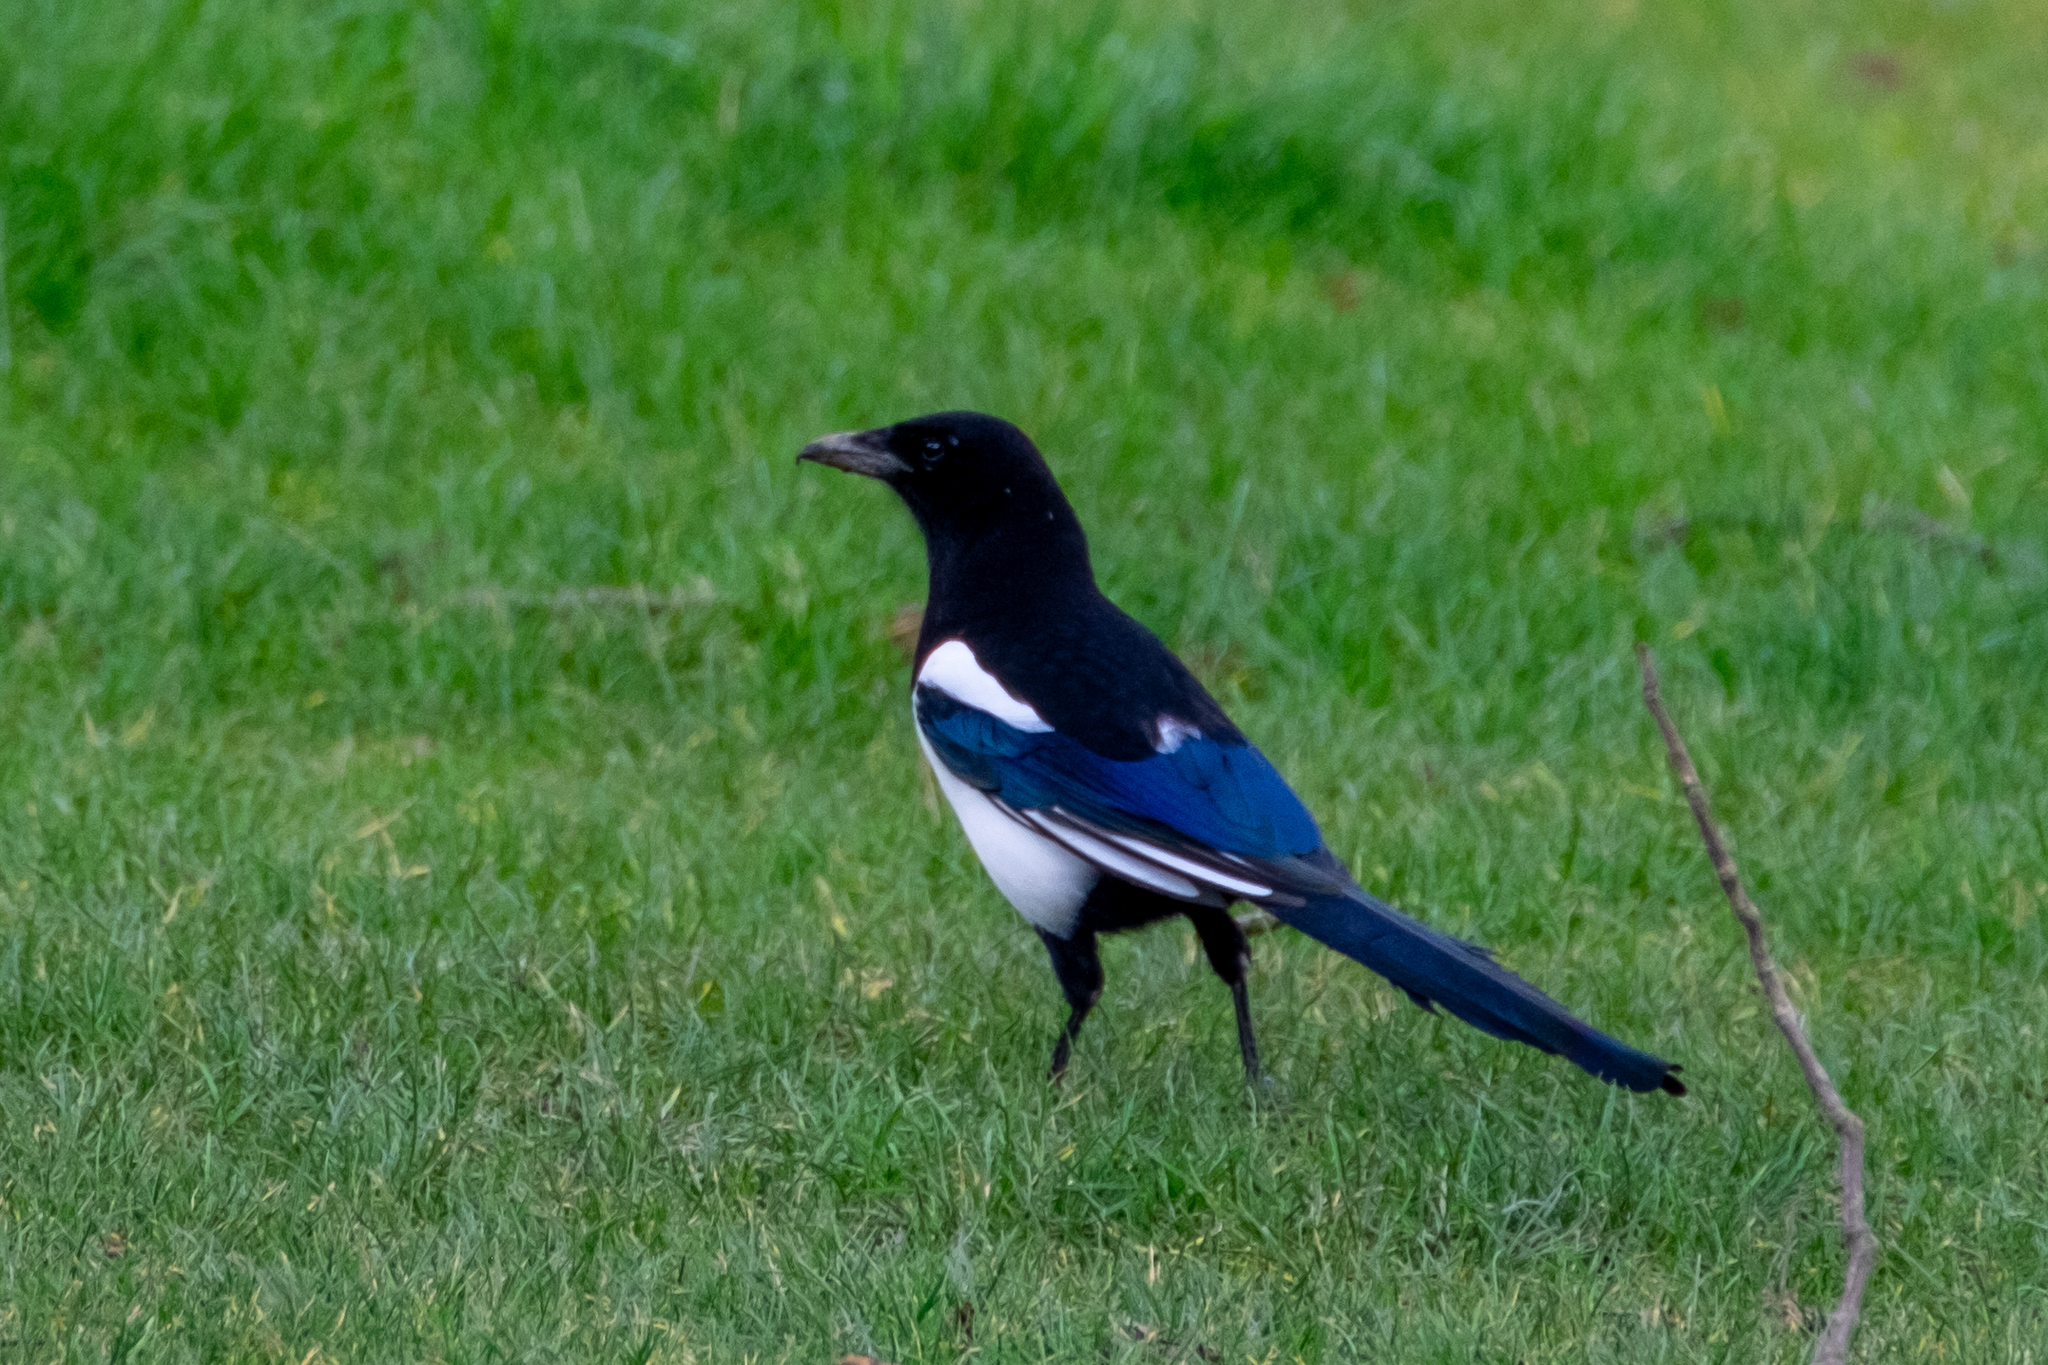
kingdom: Animalia
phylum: Chordata
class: Aves
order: Passeriformes
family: Corvidae
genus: Pica
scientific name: Pica pica
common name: Eurasian magpie
